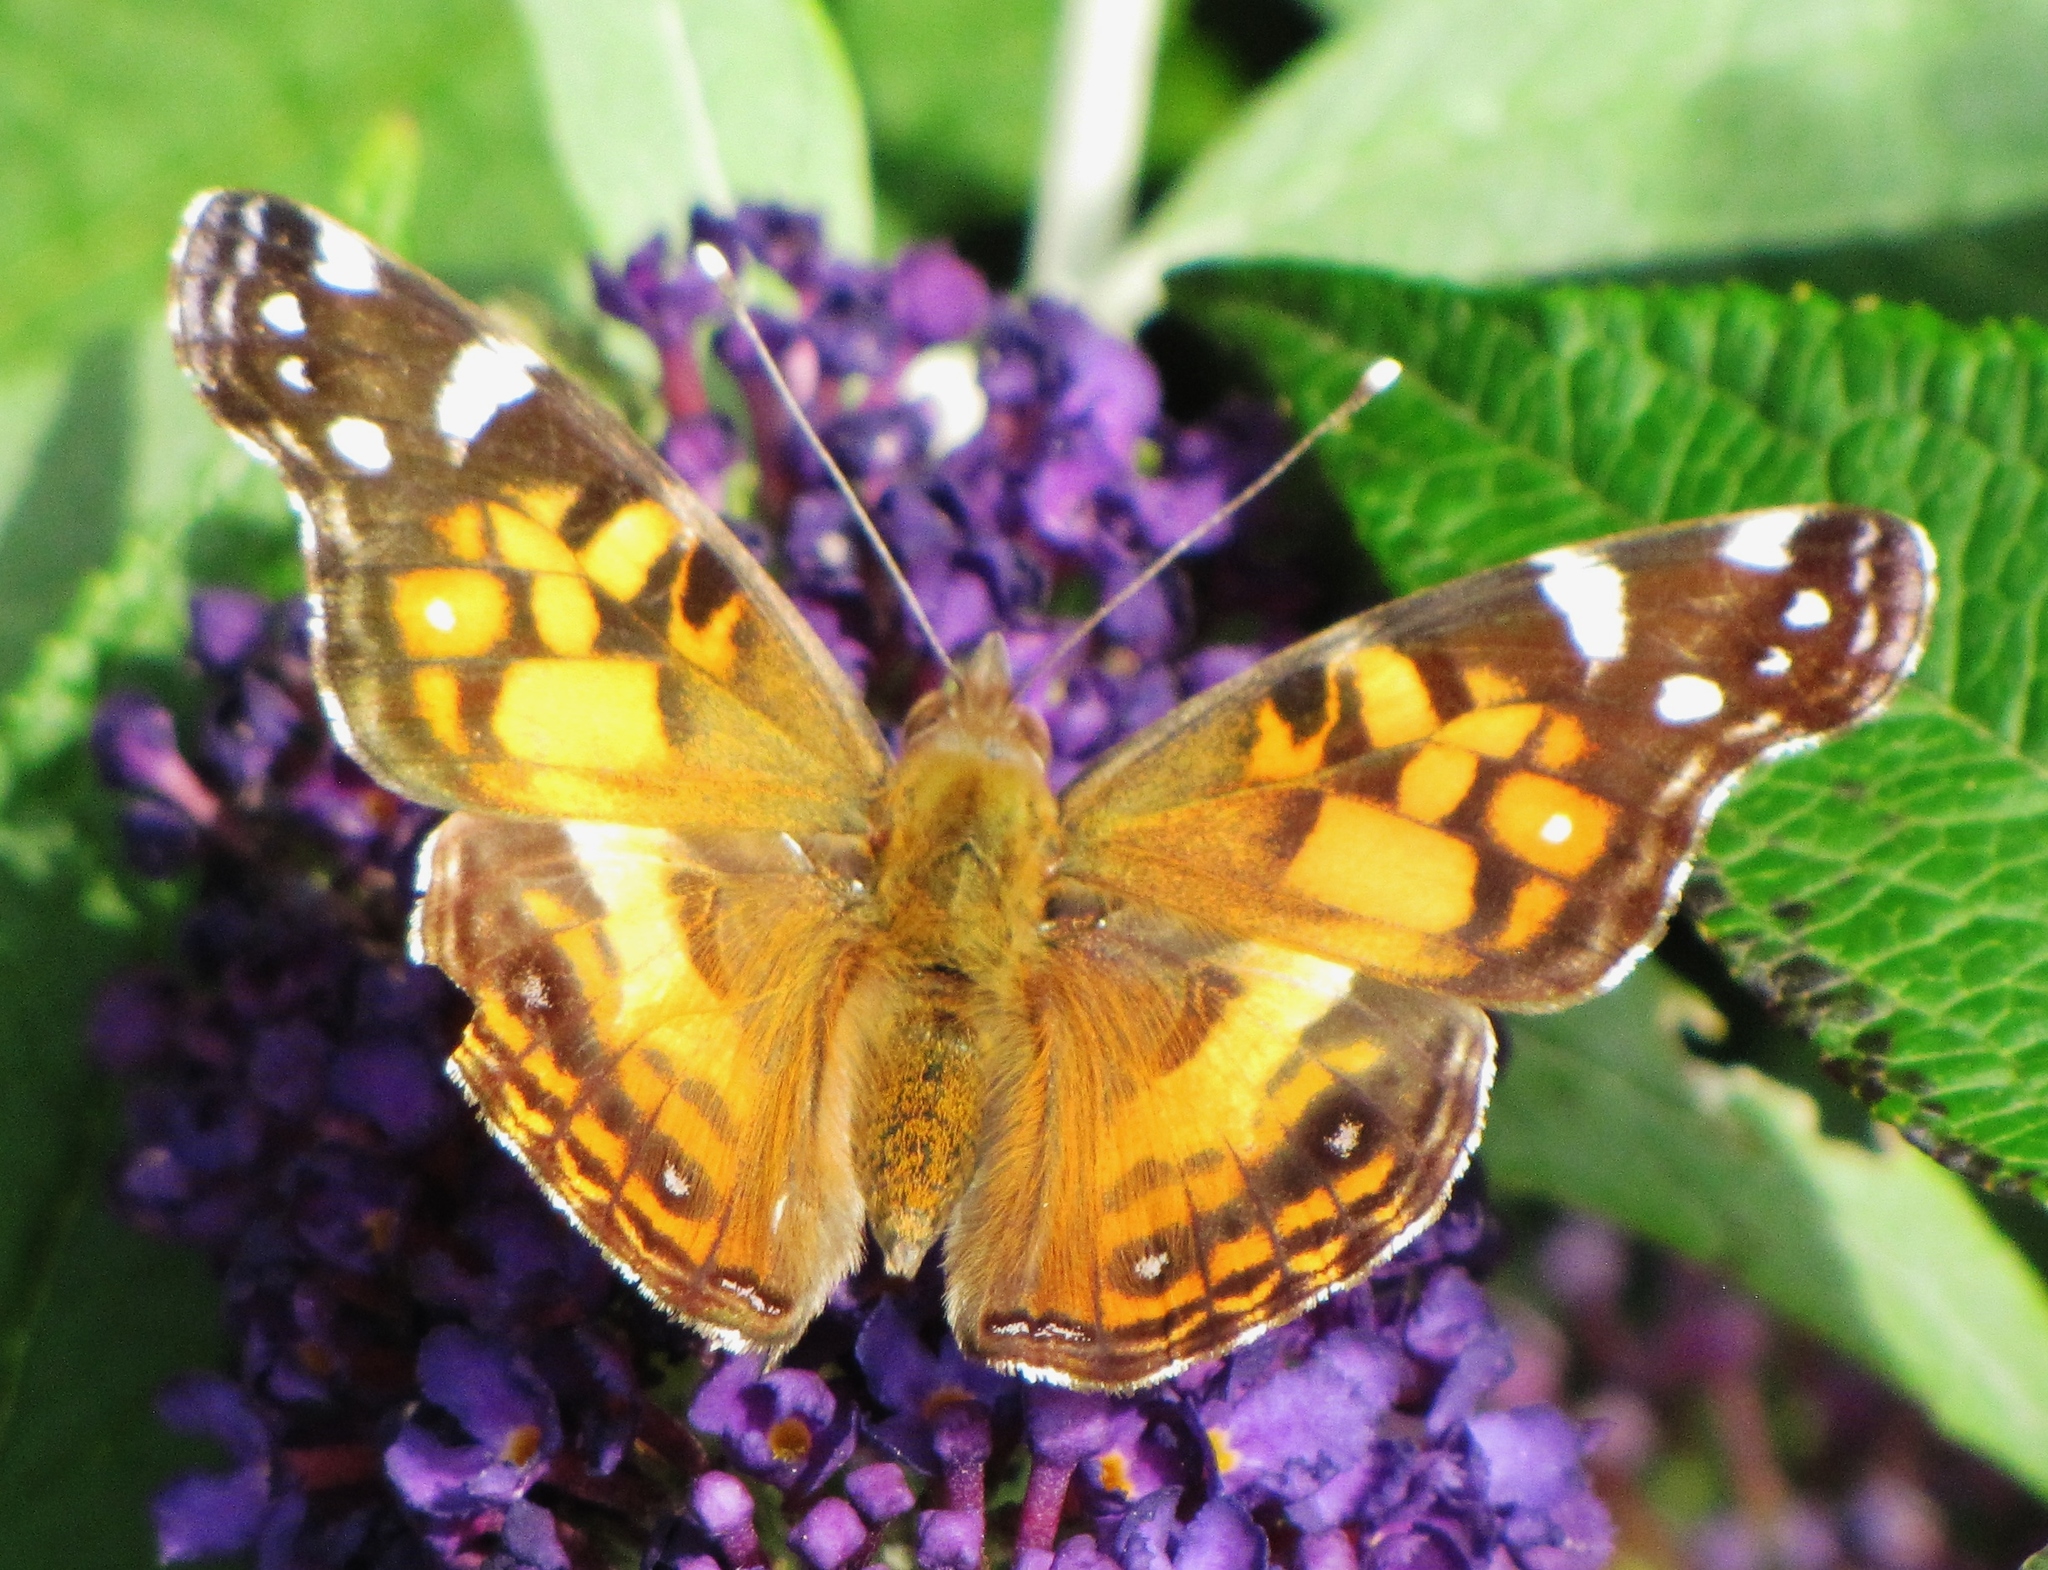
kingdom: Animalia
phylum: Arthropoda
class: Insecta
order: Lepidoptera
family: Nymphalidae
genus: Vanessa
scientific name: Vanessa virginiensis
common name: American lady
